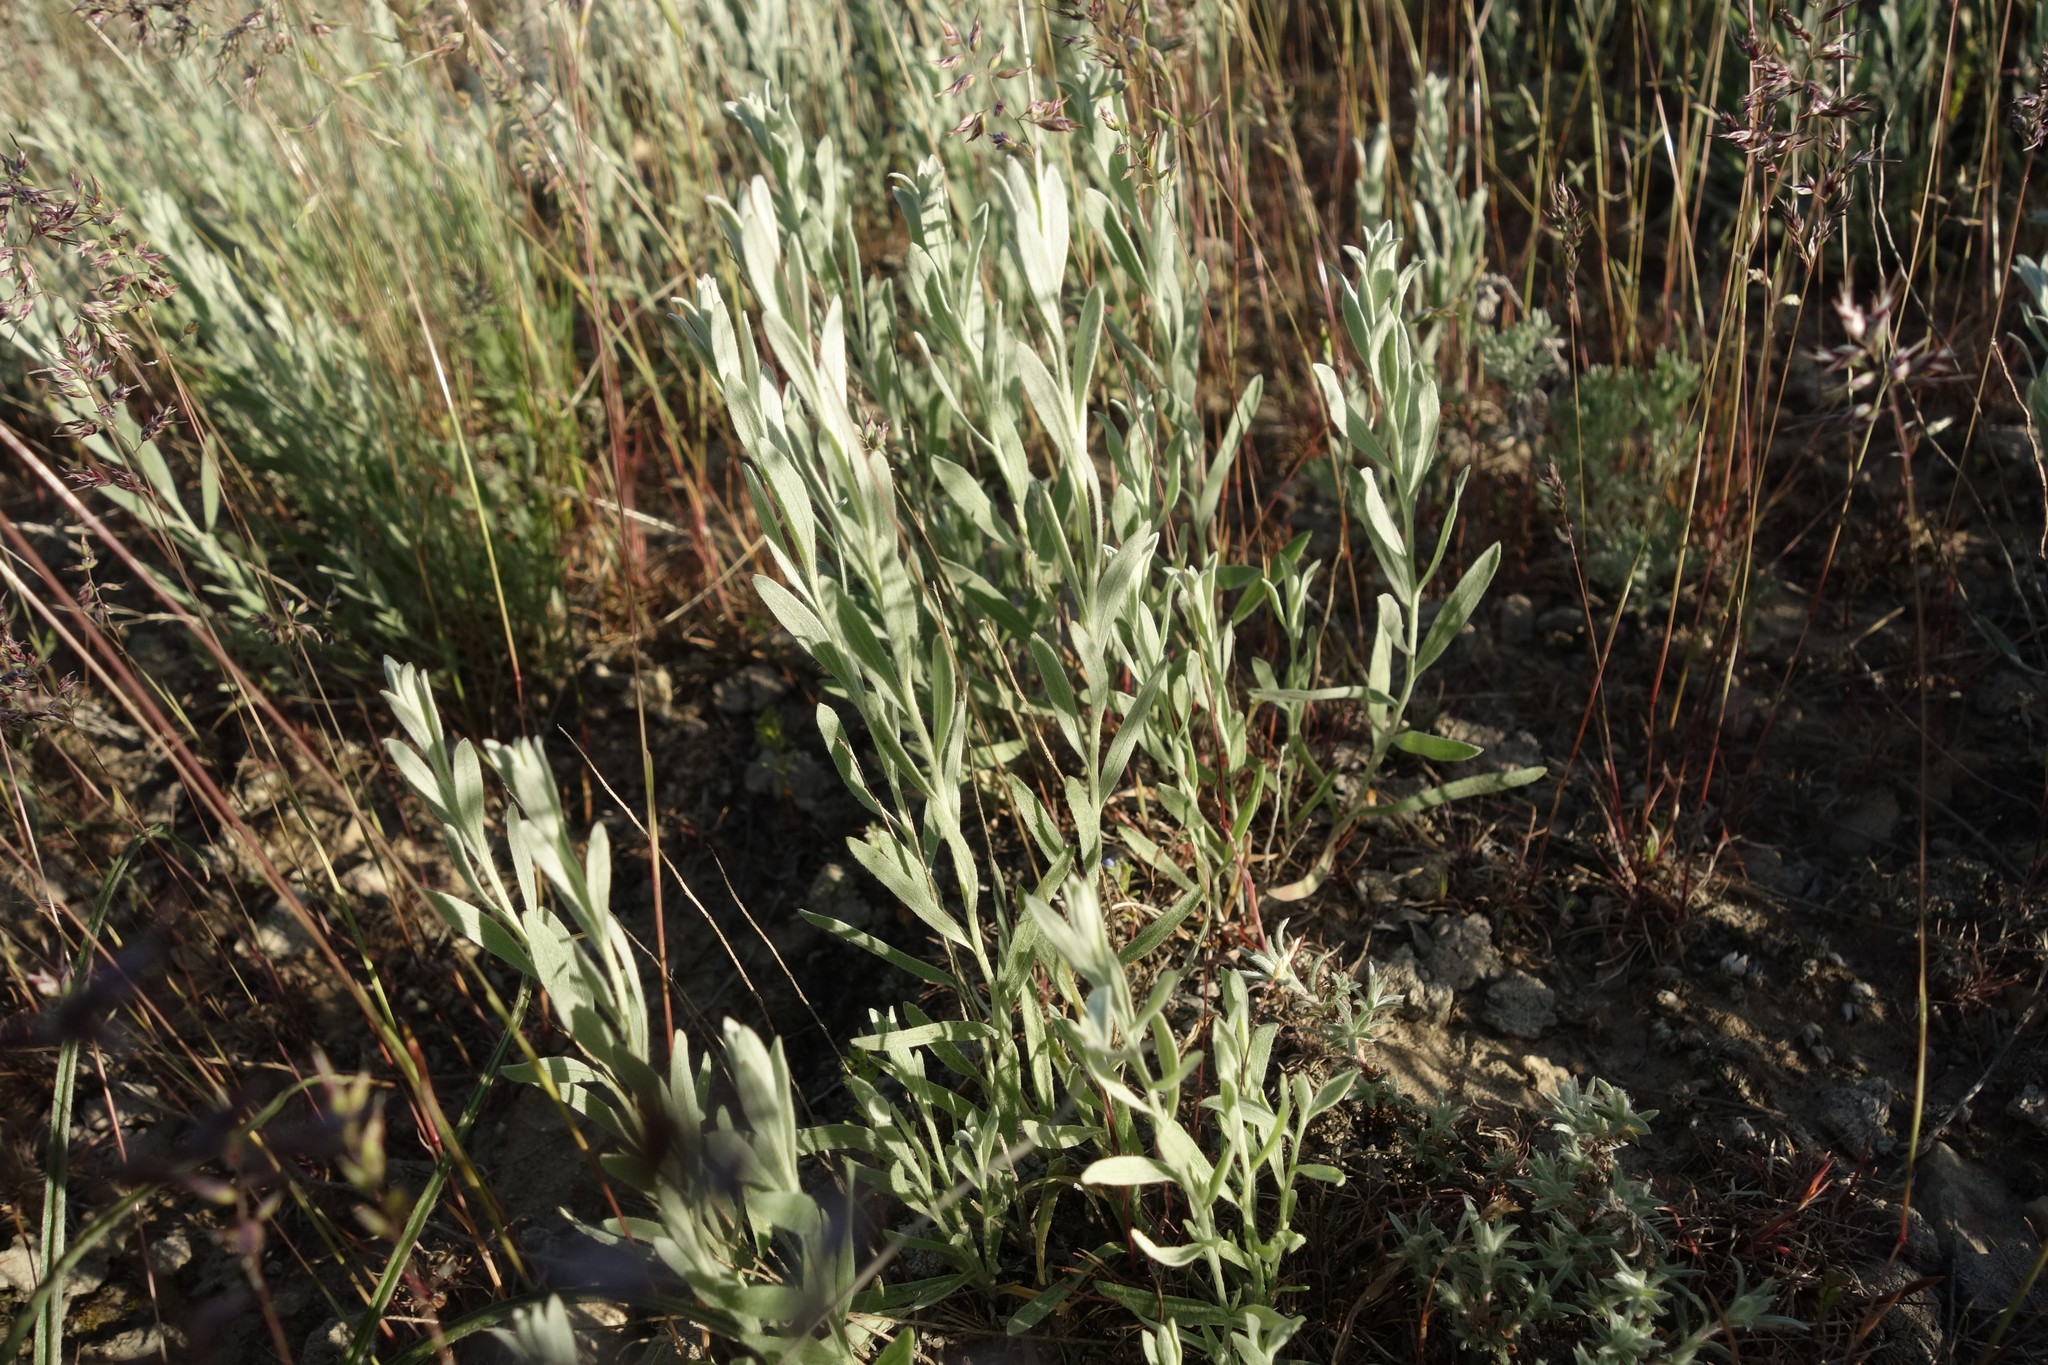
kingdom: Plantae
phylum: Tracheophyta
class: Magnoliopsida
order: Asterales
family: Asteraceae
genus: Galatella
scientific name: Galatella villosa
